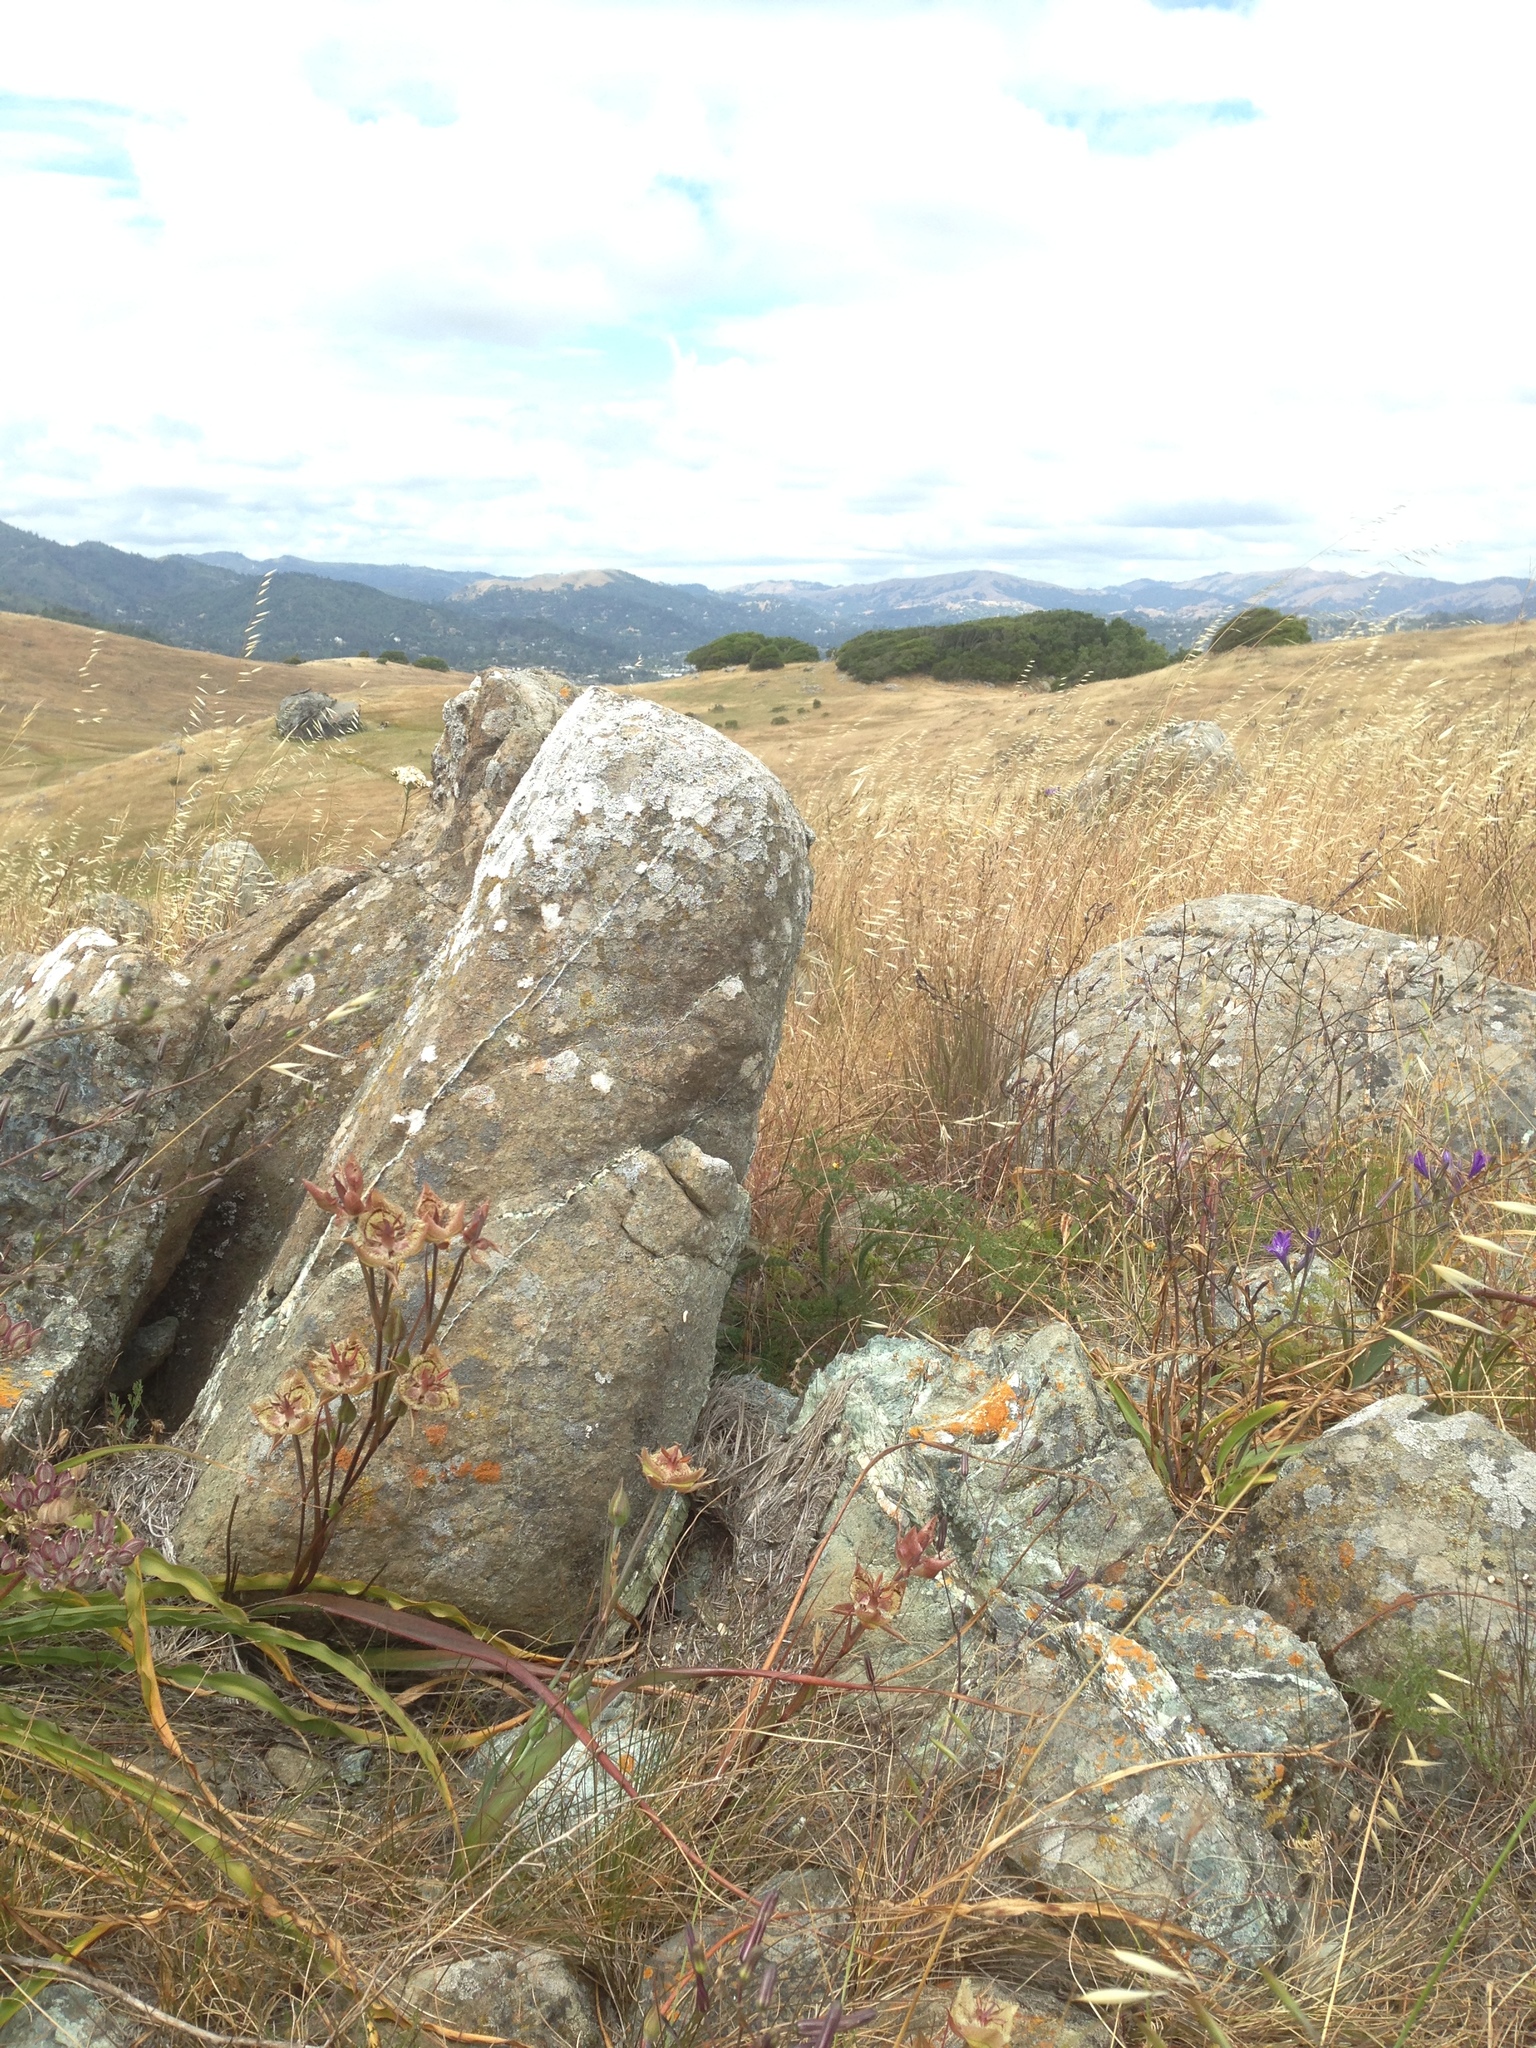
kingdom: Plantae
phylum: Tracheophyta
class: Liliopsida
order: Liliales
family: Liliaceae
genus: Calochortus
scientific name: Calochortus tiburonensis
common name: Tiburon mariposa-lily
